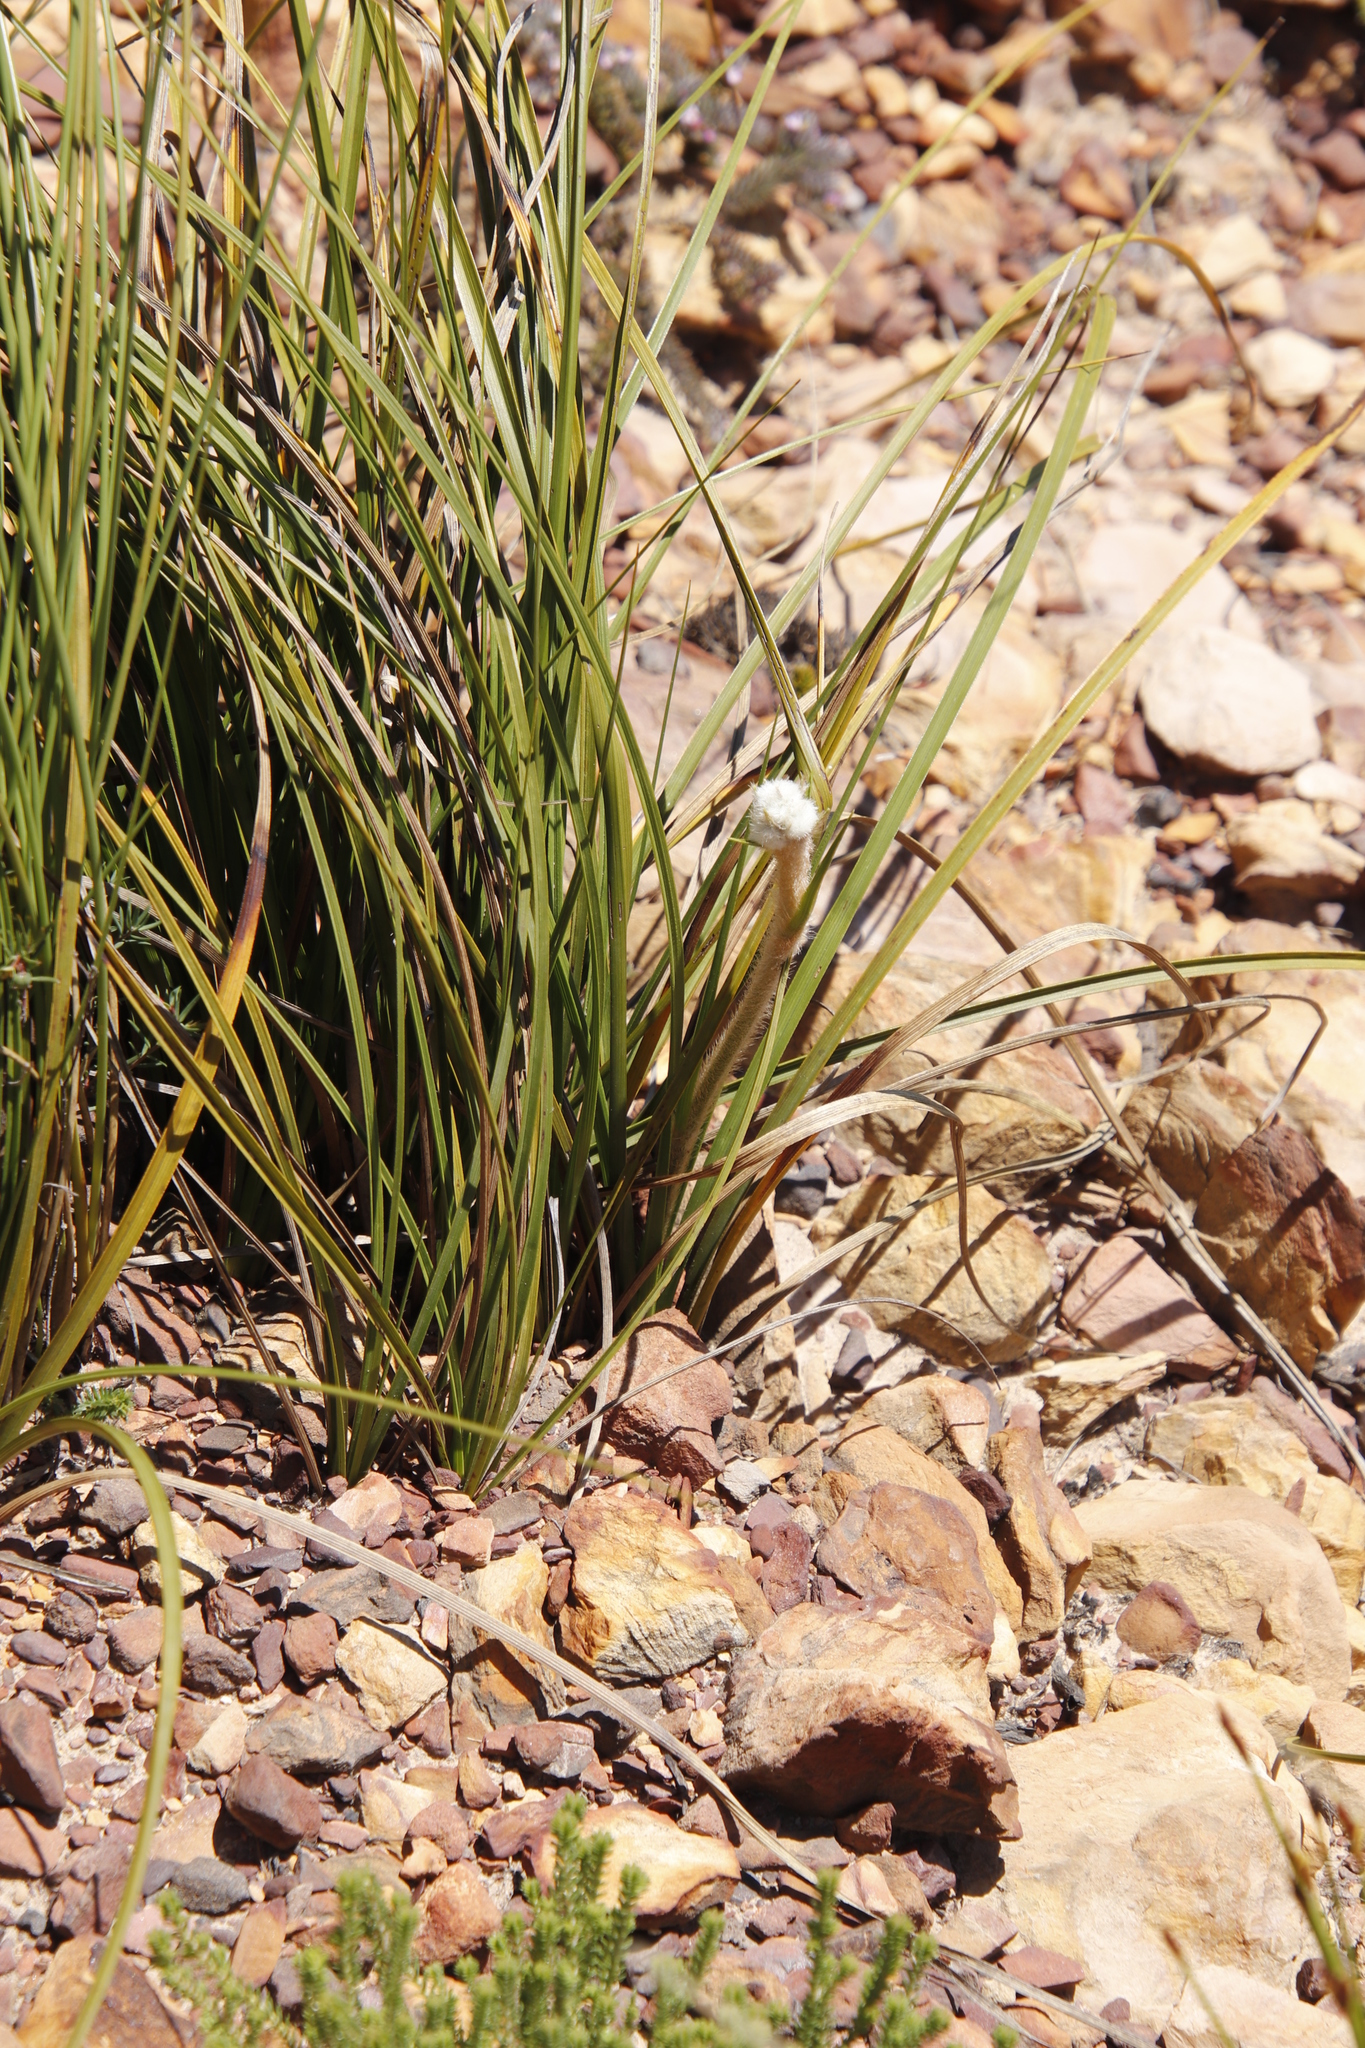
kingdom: Plantae
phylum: Tracheophyta
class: Liliopsida
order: Asparagales
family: Lanariaceae
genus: Lanaria
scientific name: Lanaria lanata
